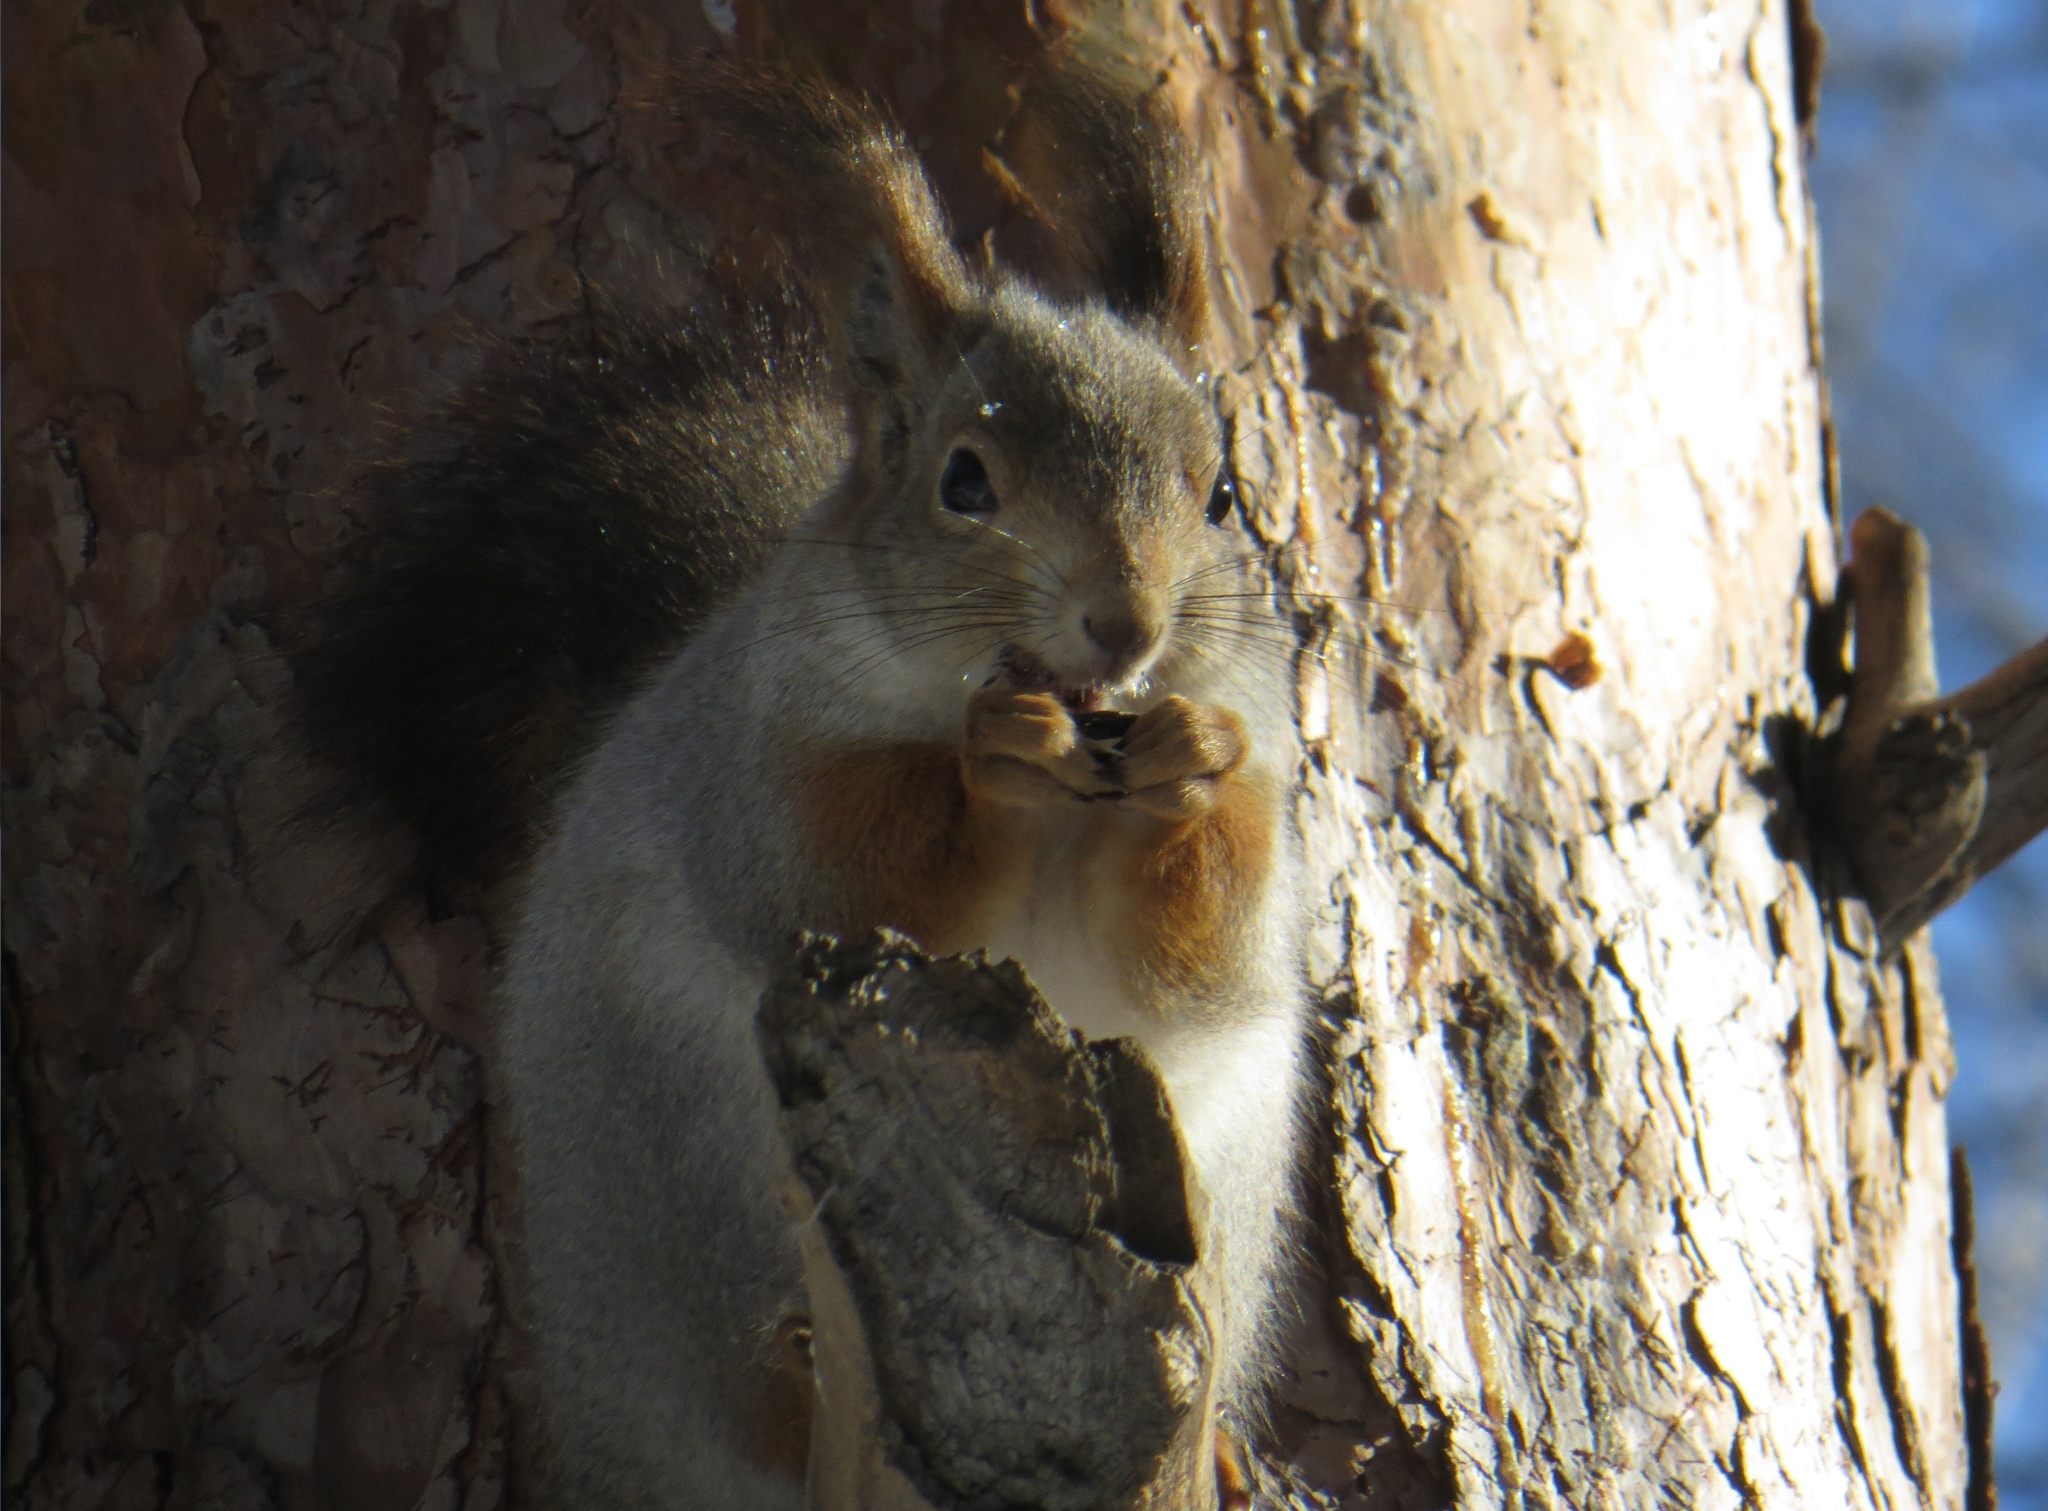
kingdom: Animalia
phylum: Chordata
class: Mammalia
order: Rodentia
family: Sciuridae
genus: Sciurus
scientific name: Sciurus vulgaris
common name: Eurasian red squirrel
